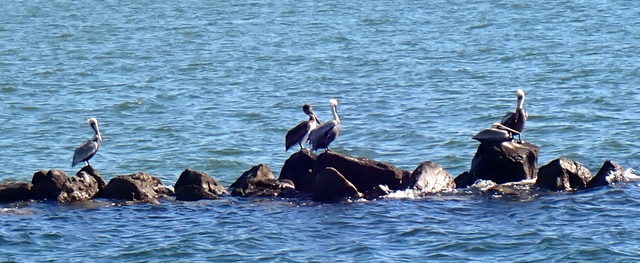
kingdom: Animalia
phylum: Chordata
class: Aves
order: Pelecaniformes
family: Pelecanidae
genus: Pelecanus
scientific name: Pelecanus occidentalis
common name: Brown pelican
